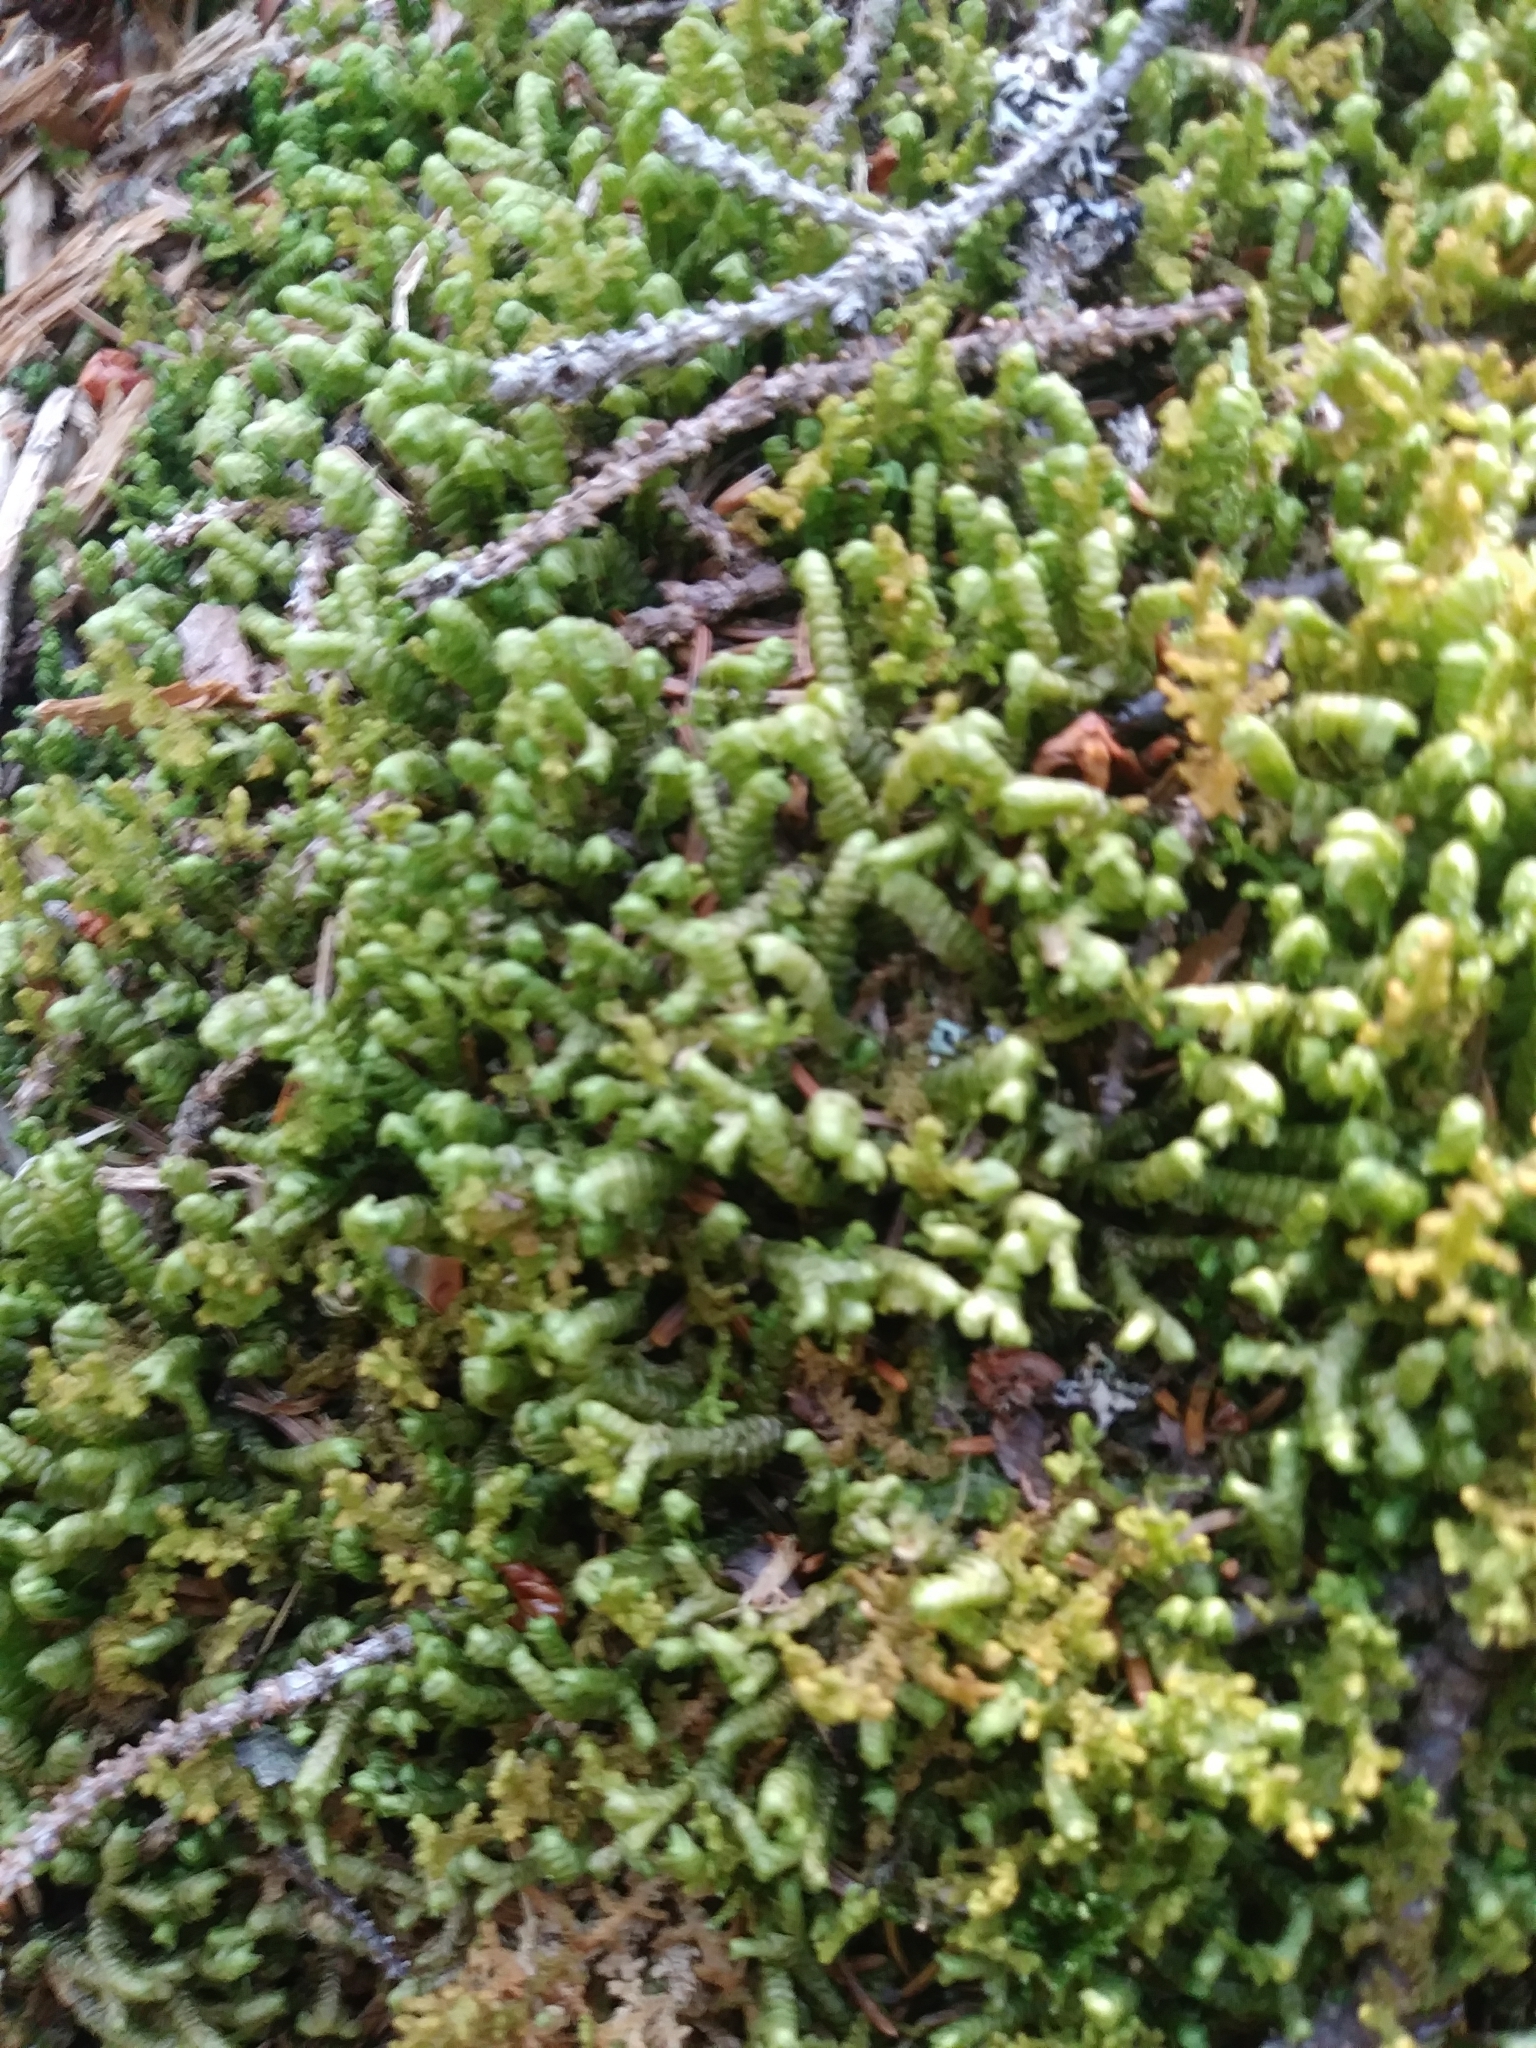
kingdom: Plantae
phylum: Marchantiophyta
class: Jungermanniopsida
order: Jungermanniales
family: Lepidoziaceae
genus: Bazzania
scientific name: Bazzania trilobata
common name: Three-lobed whipwort
